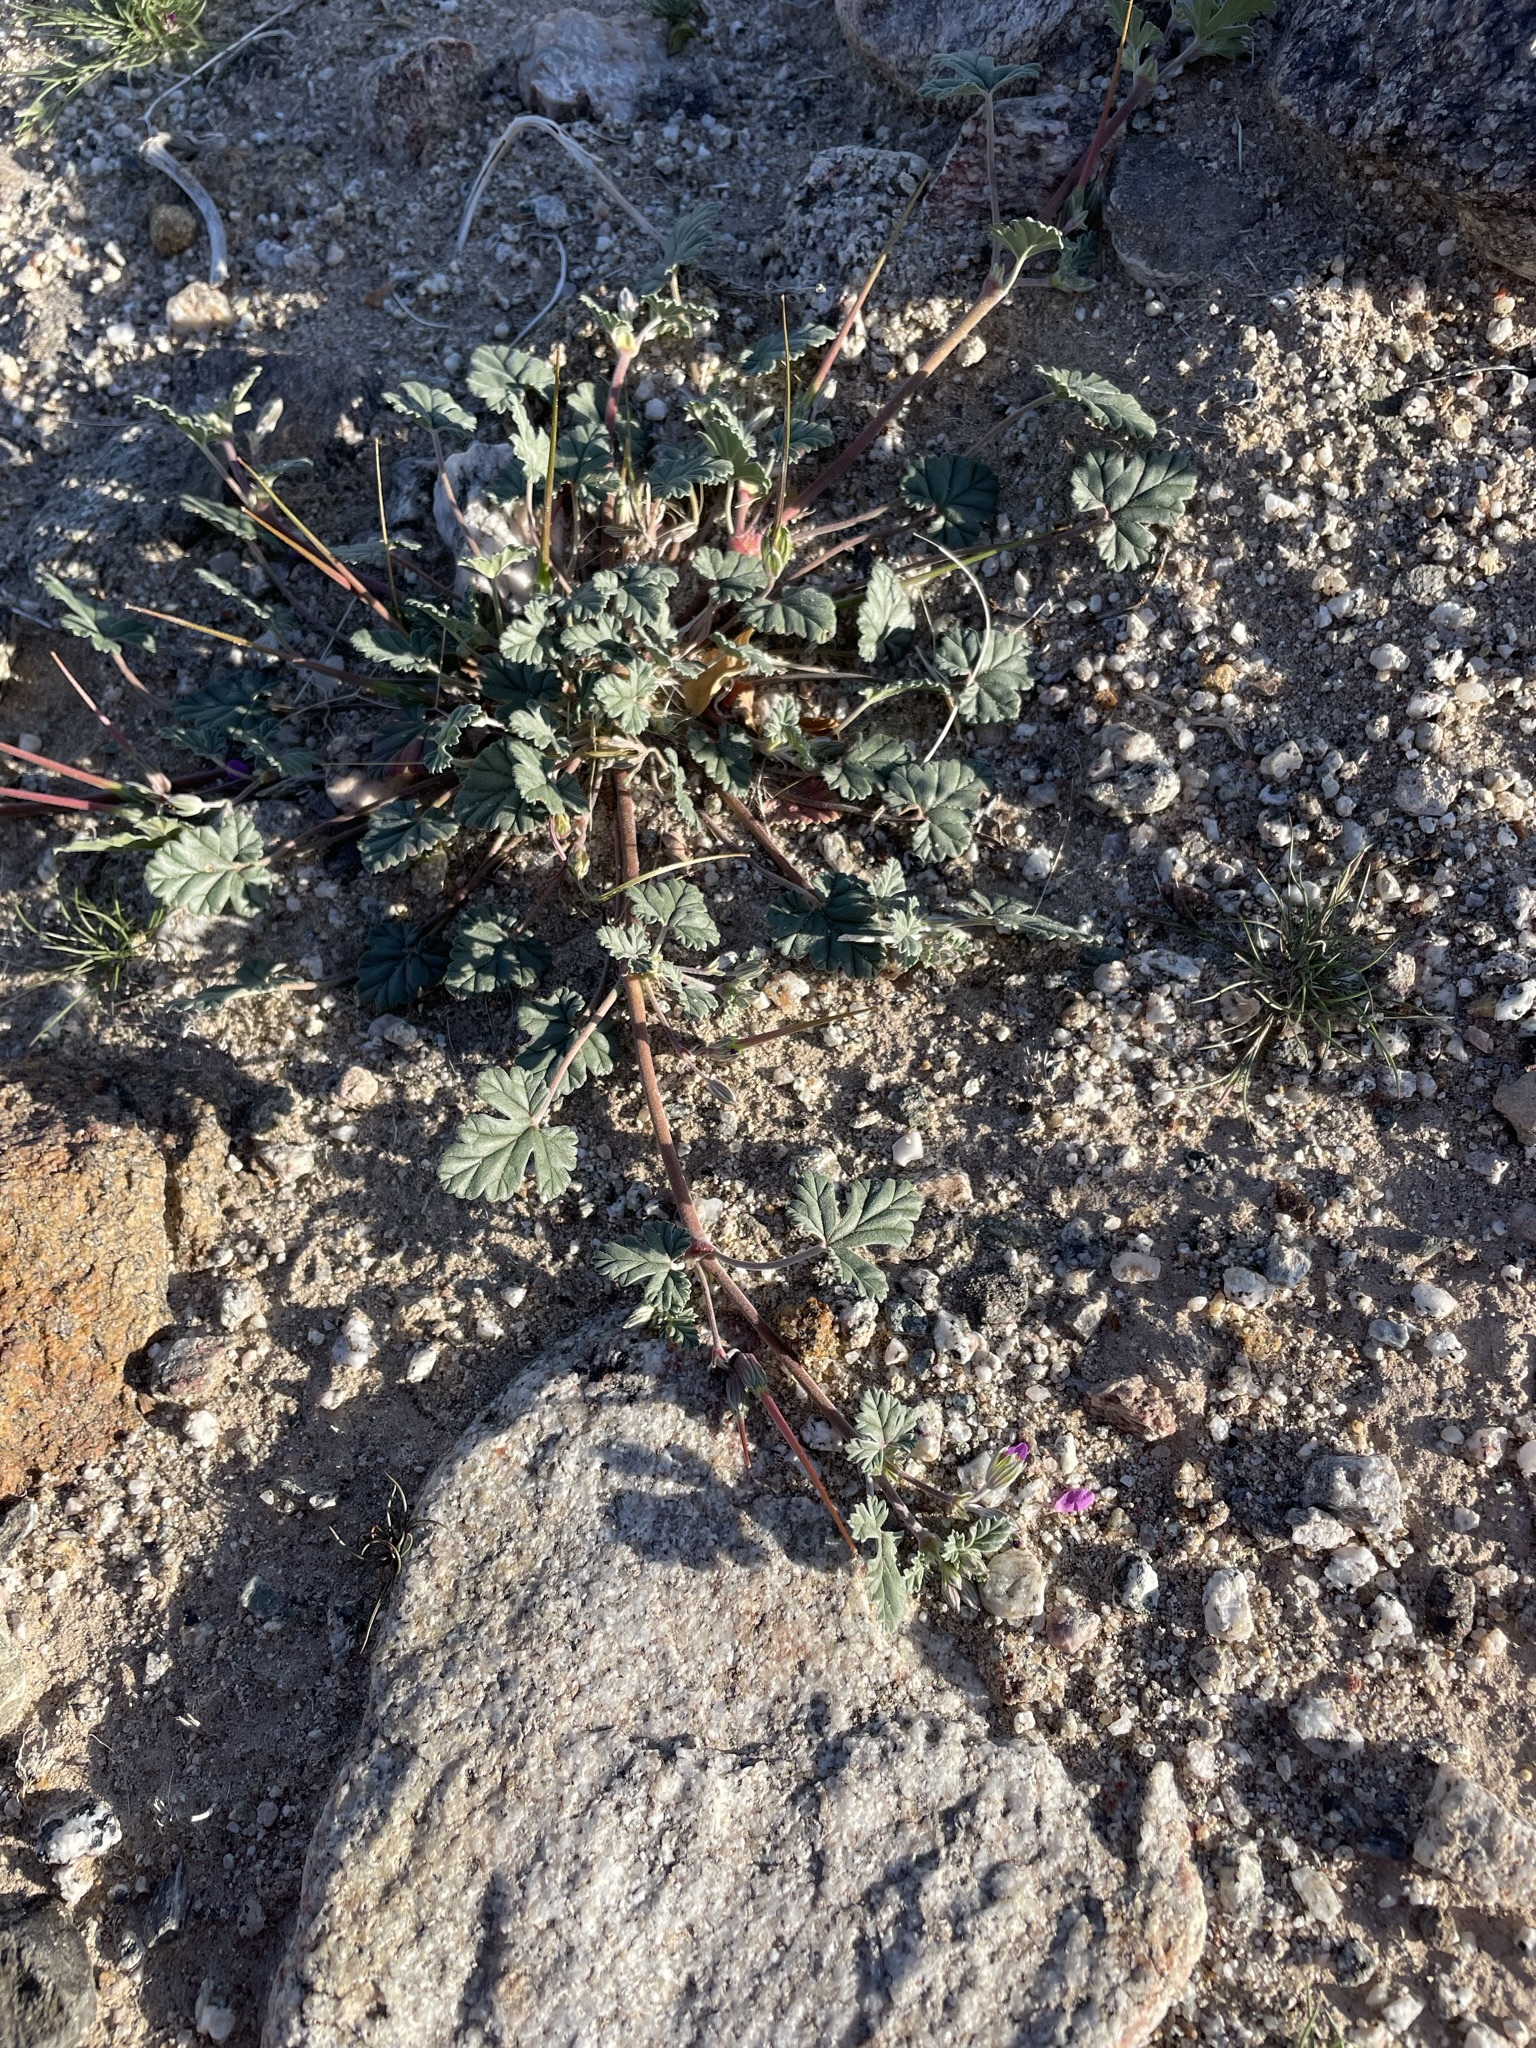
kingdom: Plantae
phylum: Tracheophyta
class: Magnoliopsida
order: Geraniales
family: Geraniaceae
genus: Erodium
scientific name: Erodium texanum
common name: Texas stork's-bill
